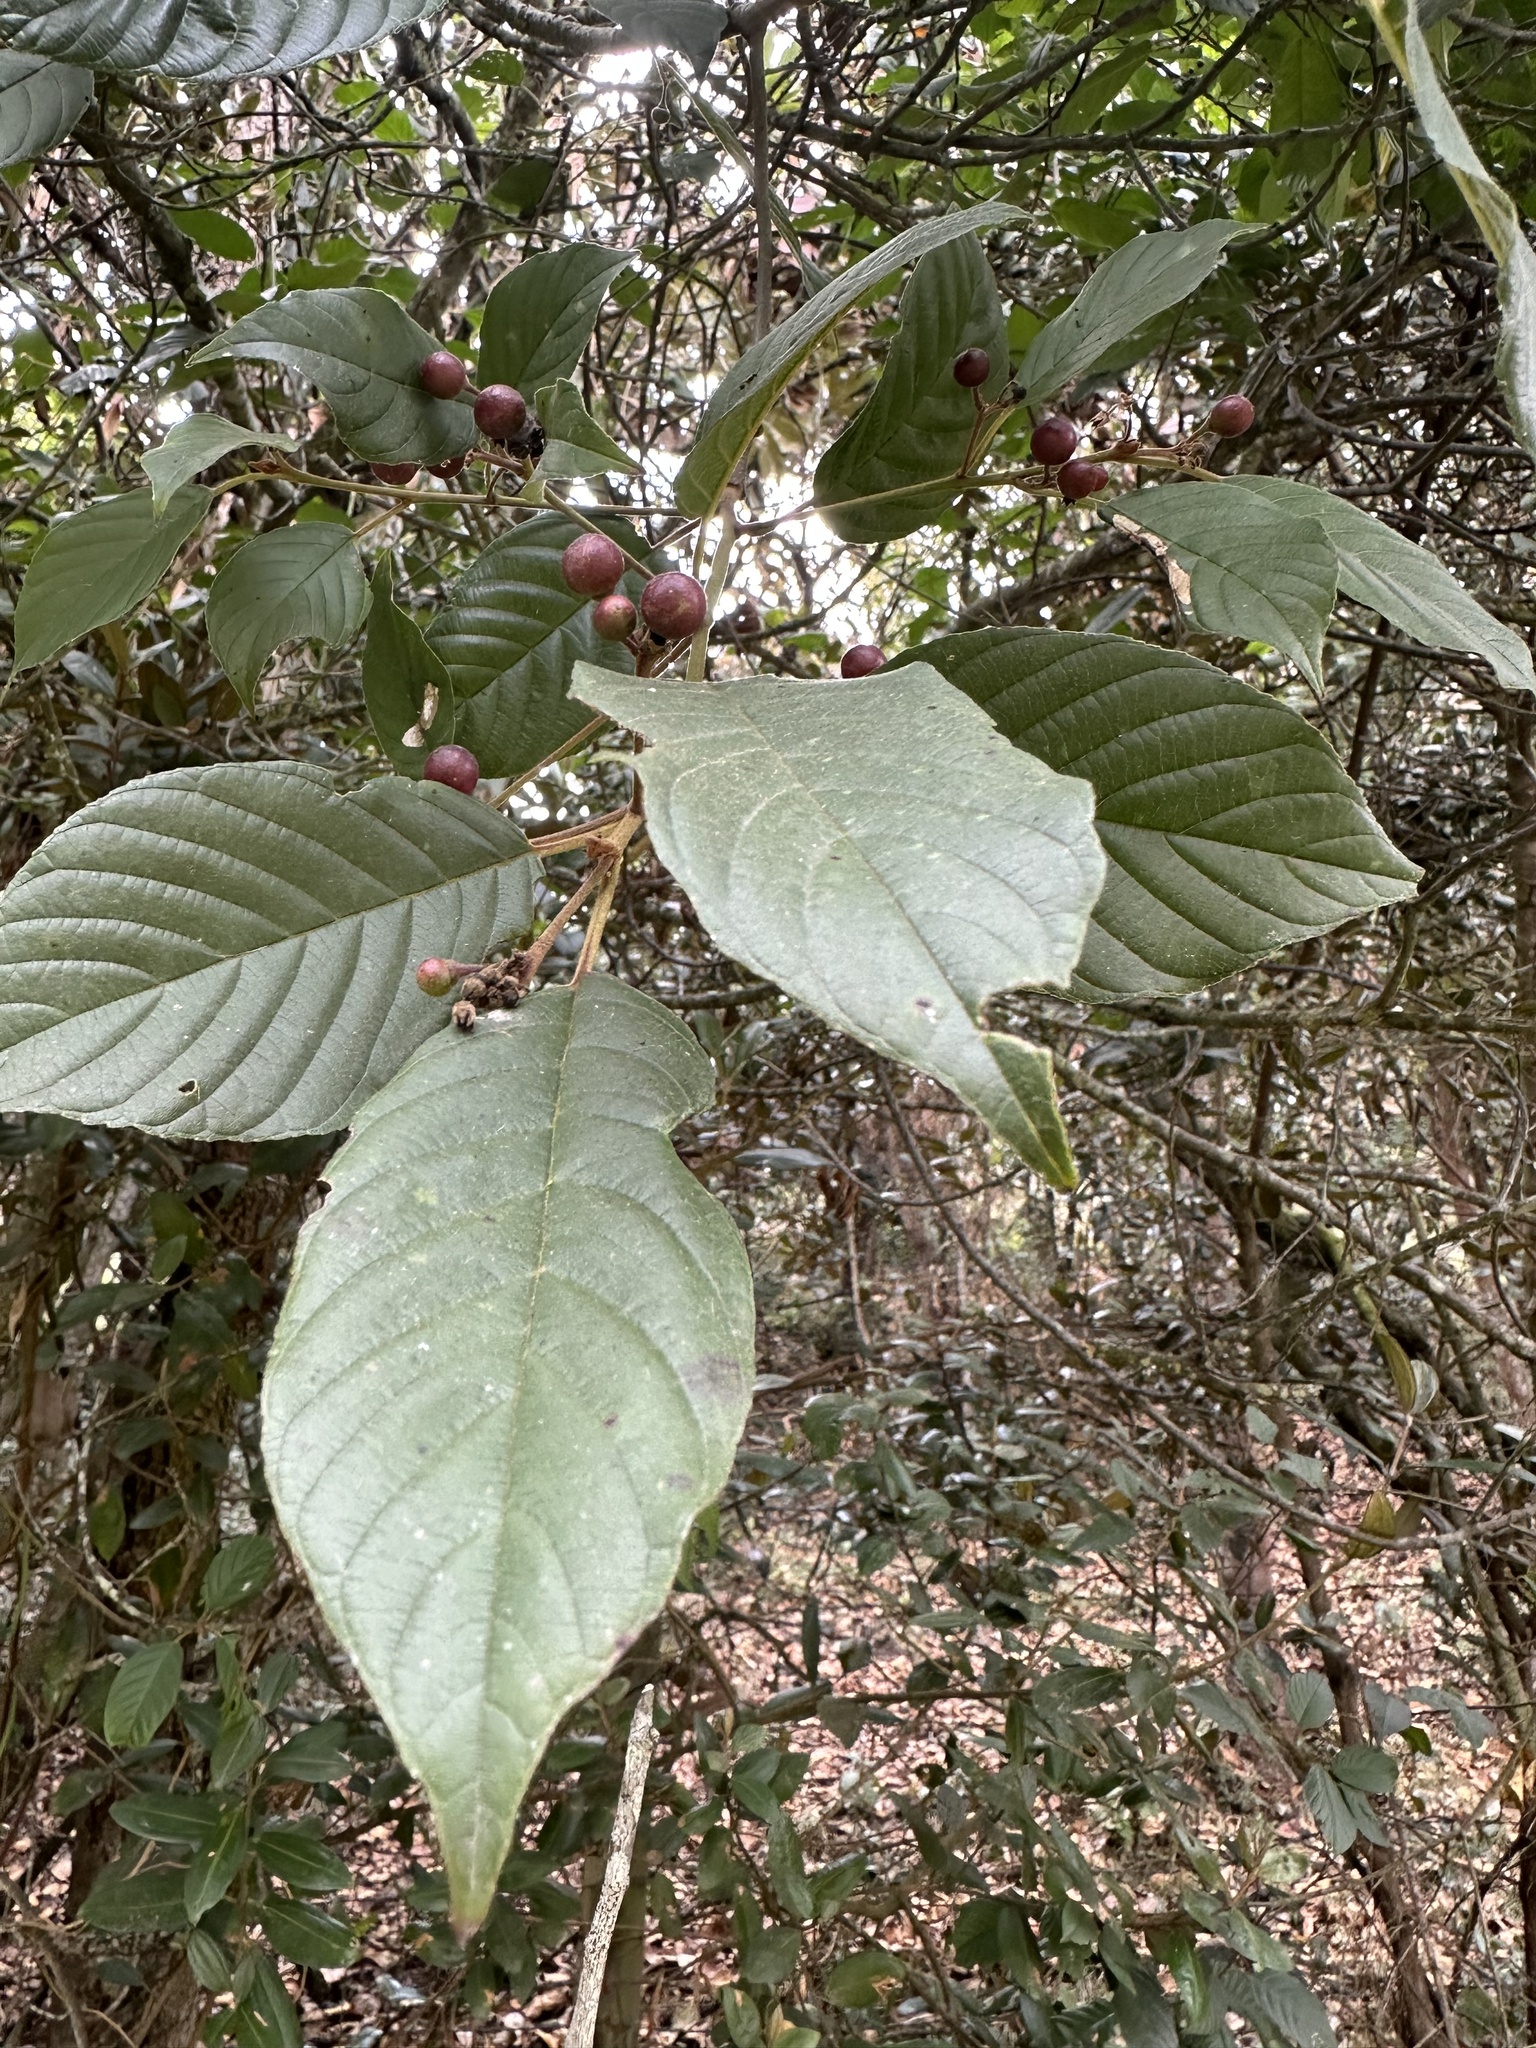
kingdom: Plantae
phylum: Tracheophyta
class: Magnoliopsida
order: Rosales
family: Rhamnaceae
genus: Frangula
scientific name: Frangula sphaerosperma
